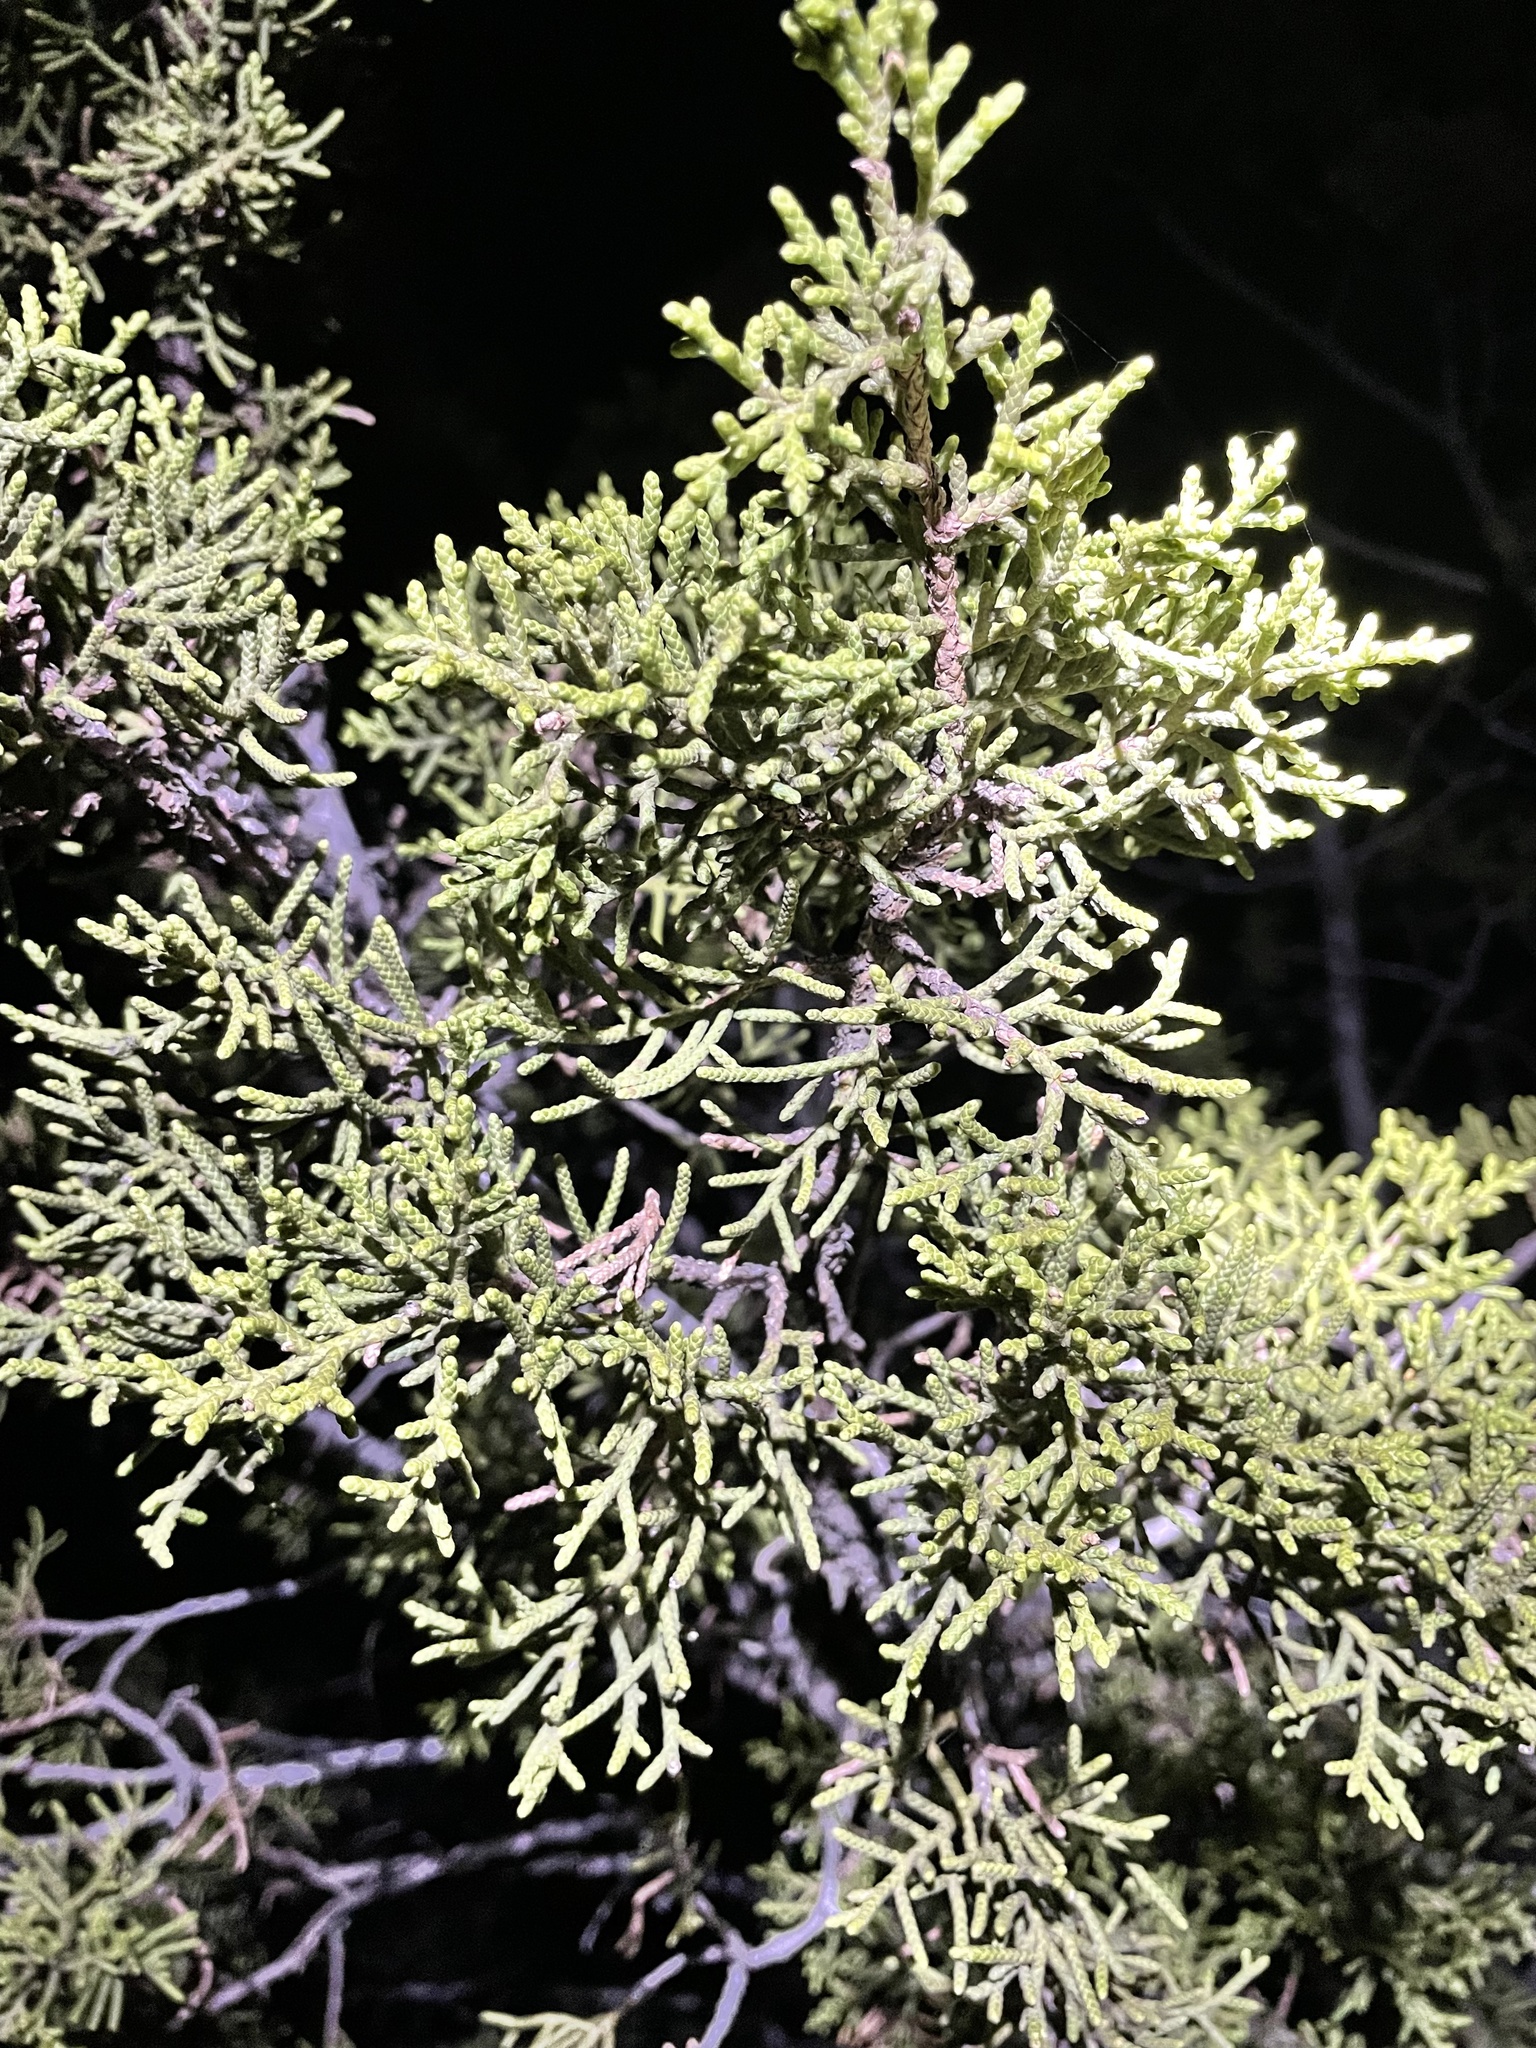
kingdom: Plantae
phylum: Tracheophyta
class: Pinopsida
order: Pinales
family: Cupressaceae
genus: Juniperus
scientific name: Juniperus californica
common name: California juniper
